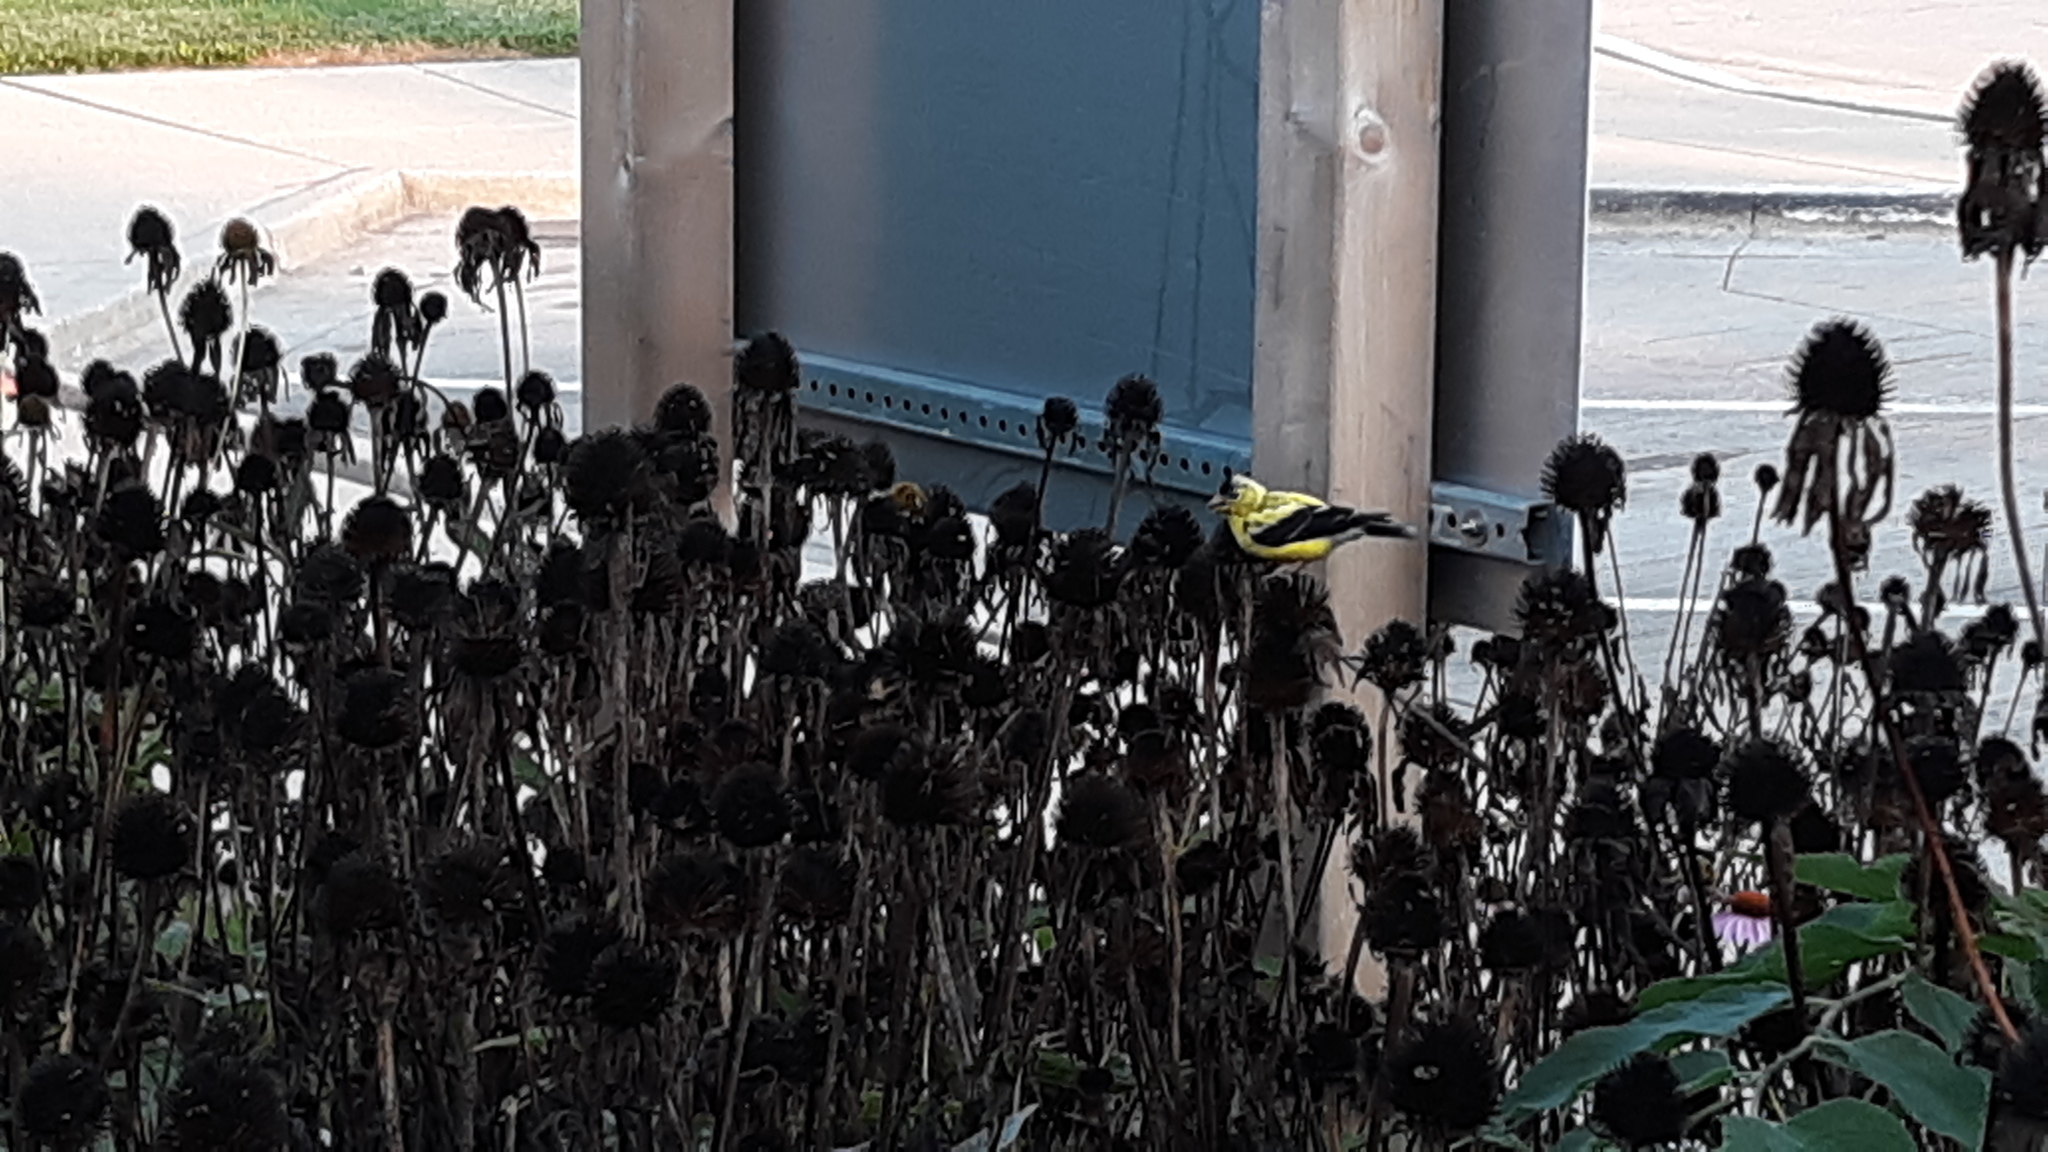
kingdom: Animalia
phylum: Chordata
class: Aves
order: Passeriformes
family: Fringillidae
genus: Spinus
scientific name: Spinus tristis
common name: American goldfinch
